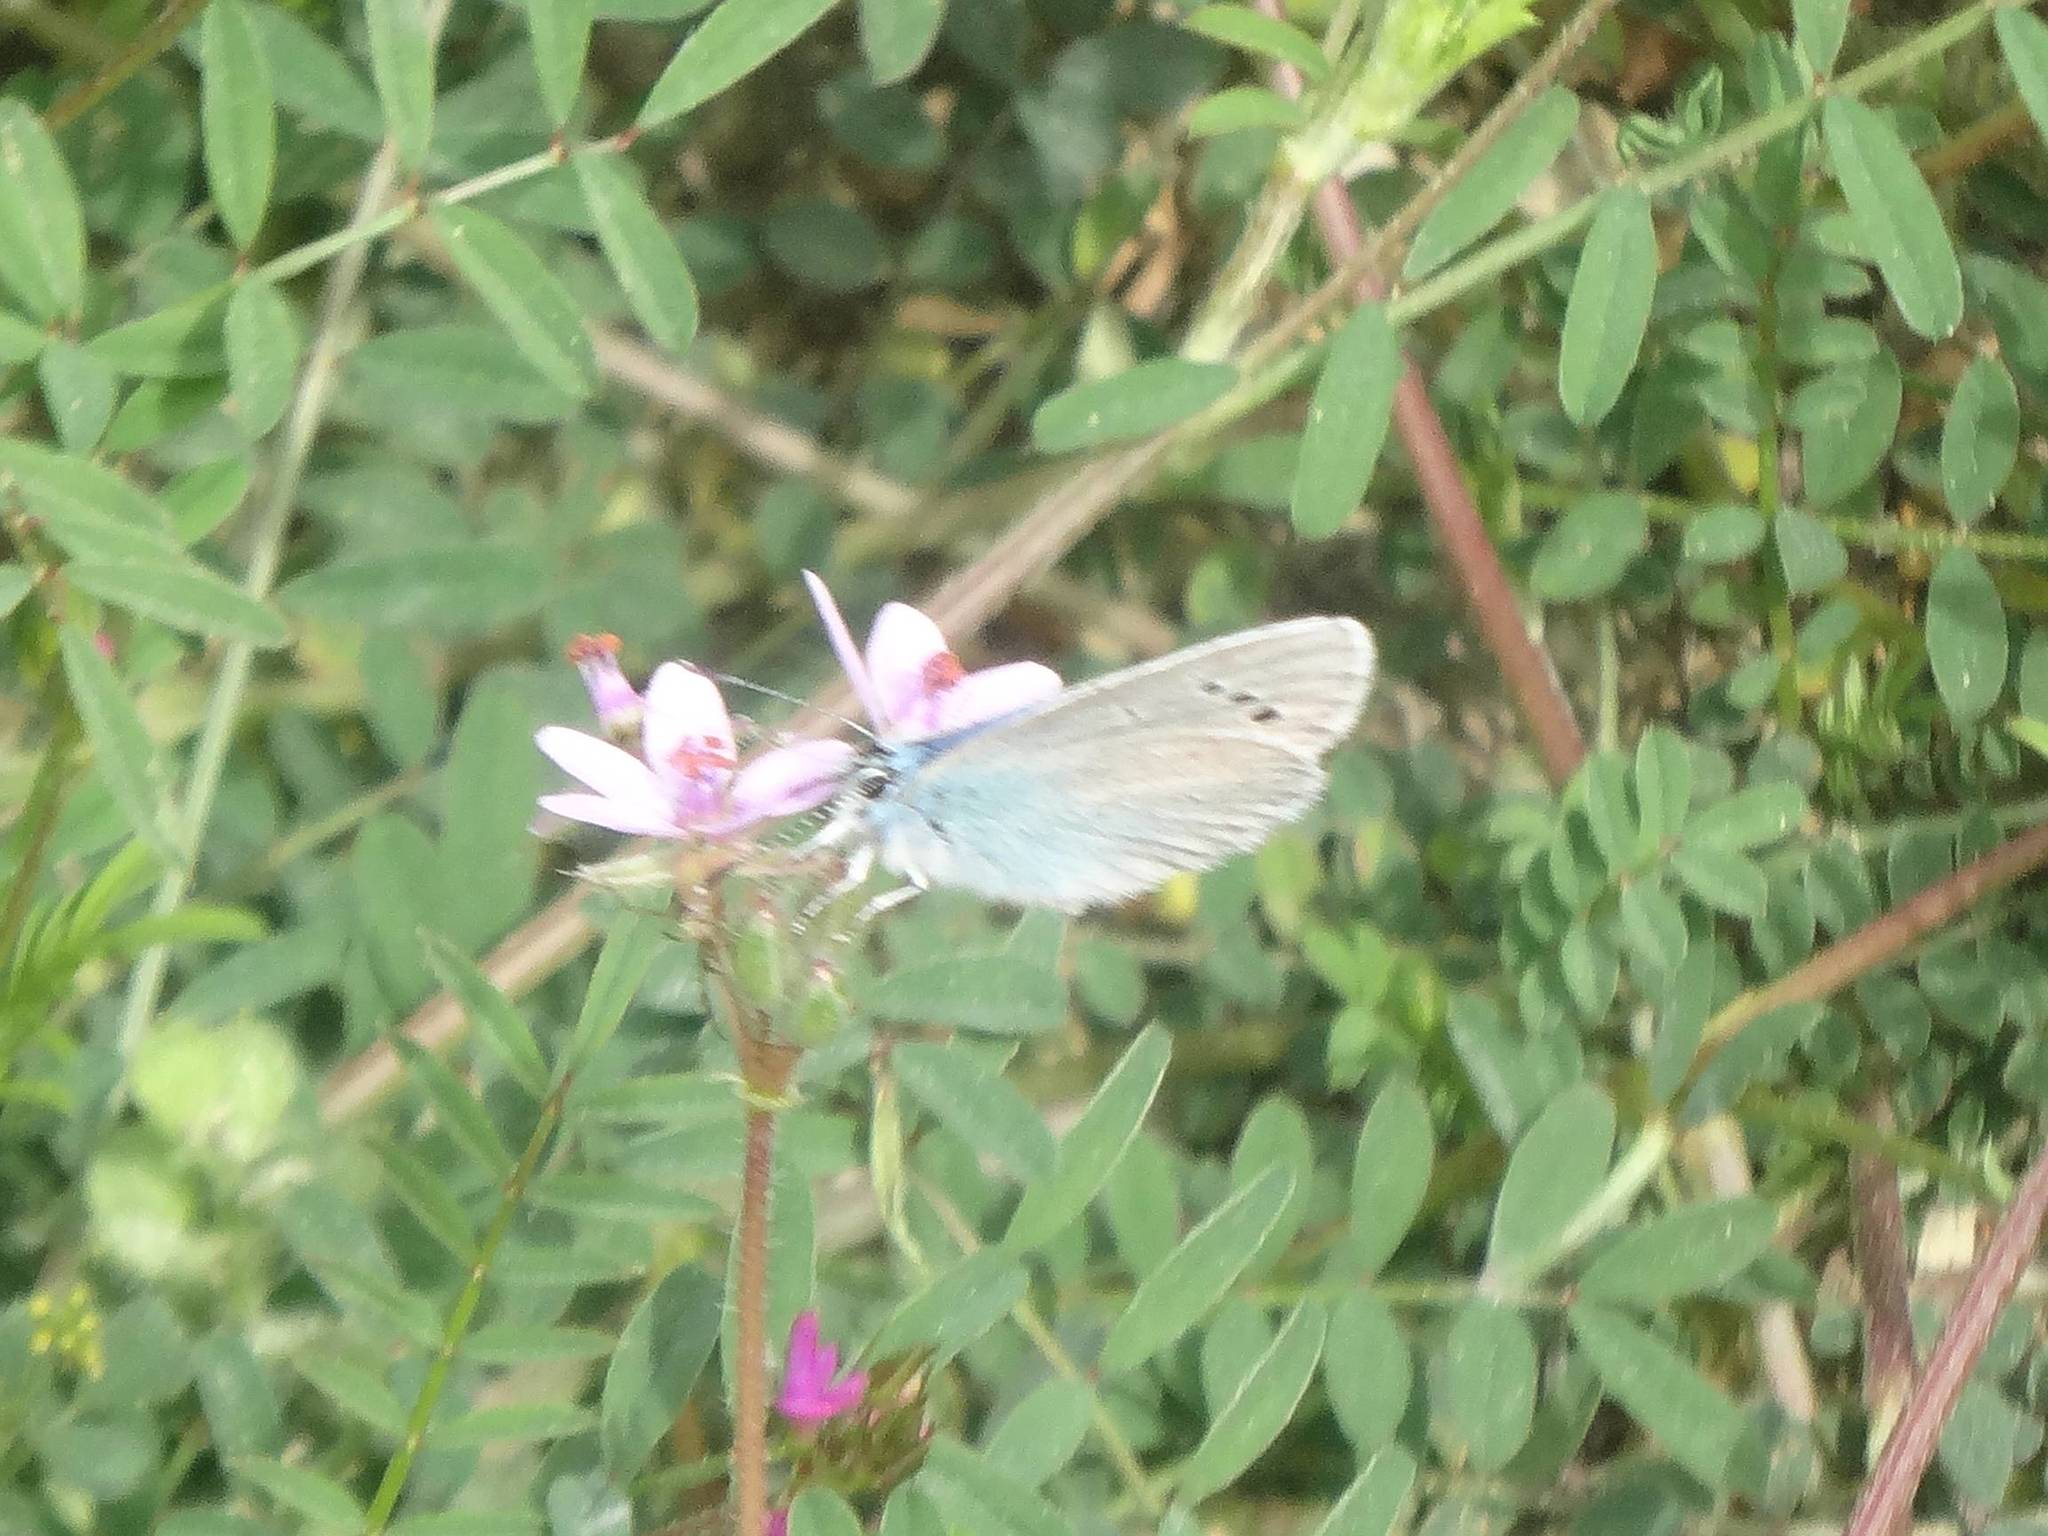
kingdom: Animalia
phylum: Arthropoda
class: Insecta
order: Lepidoptera
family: Lycaenidae
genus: Glaucopsyche
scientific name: Glaucopsyche alexis
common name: Green-underside blue
